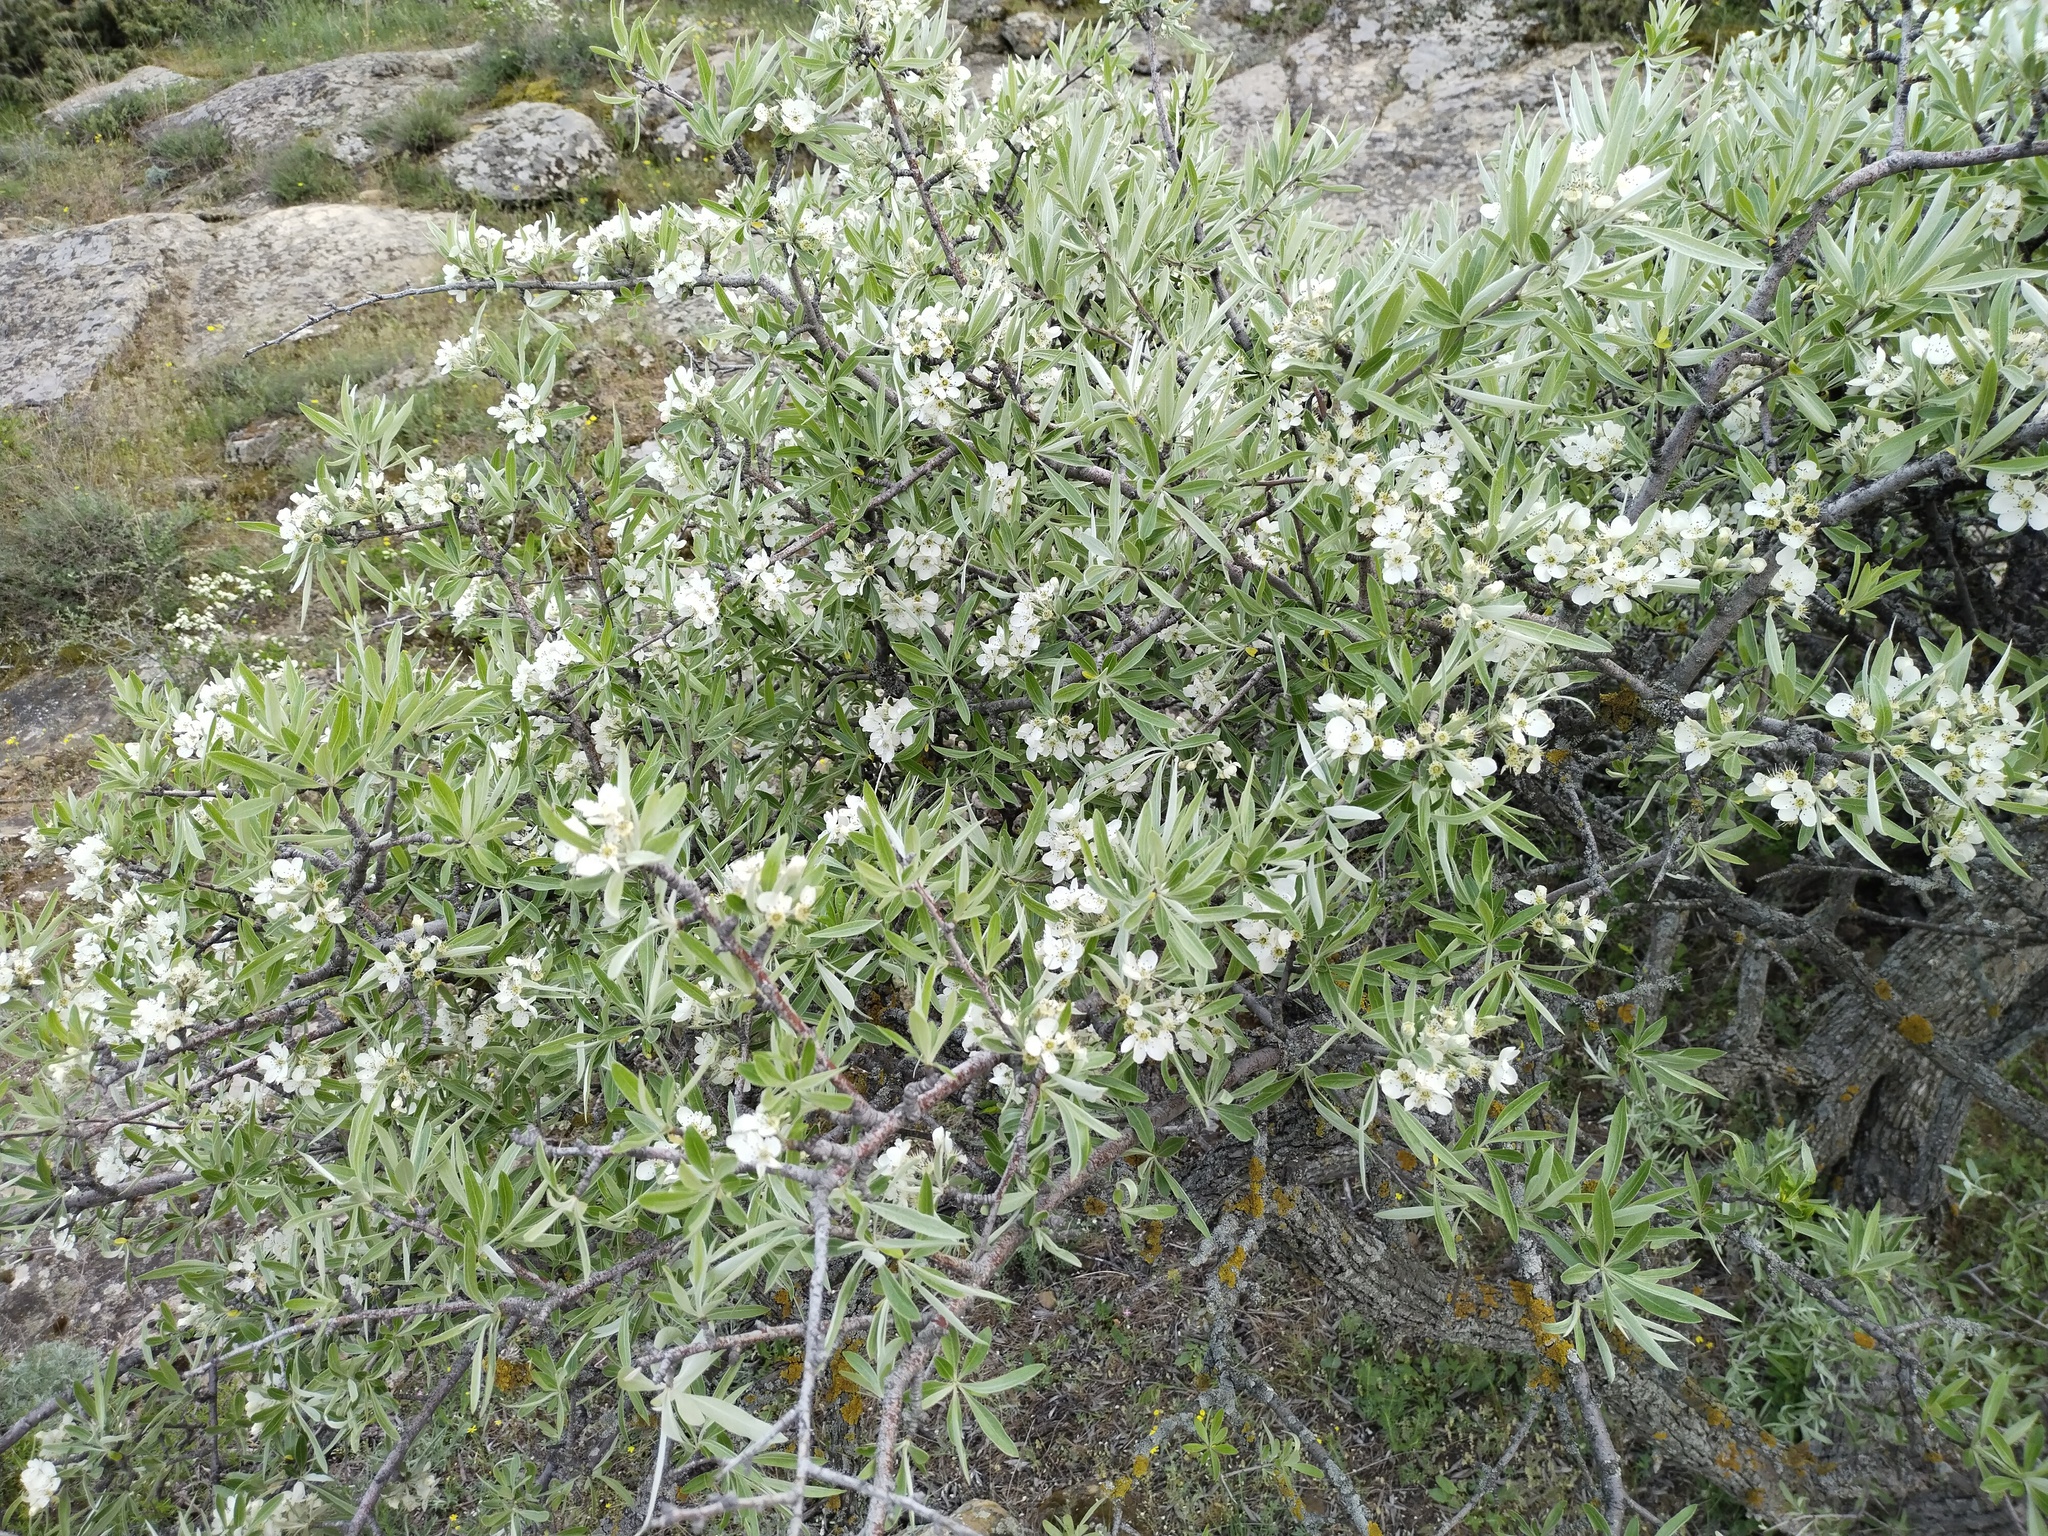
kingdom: Plantae
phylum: Tracheophyta
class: Magnoliopsida
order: Rosales
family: Rosaceae
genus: Pyrus
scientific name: Pyrus salicifolia
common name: Willow-leaved pear
